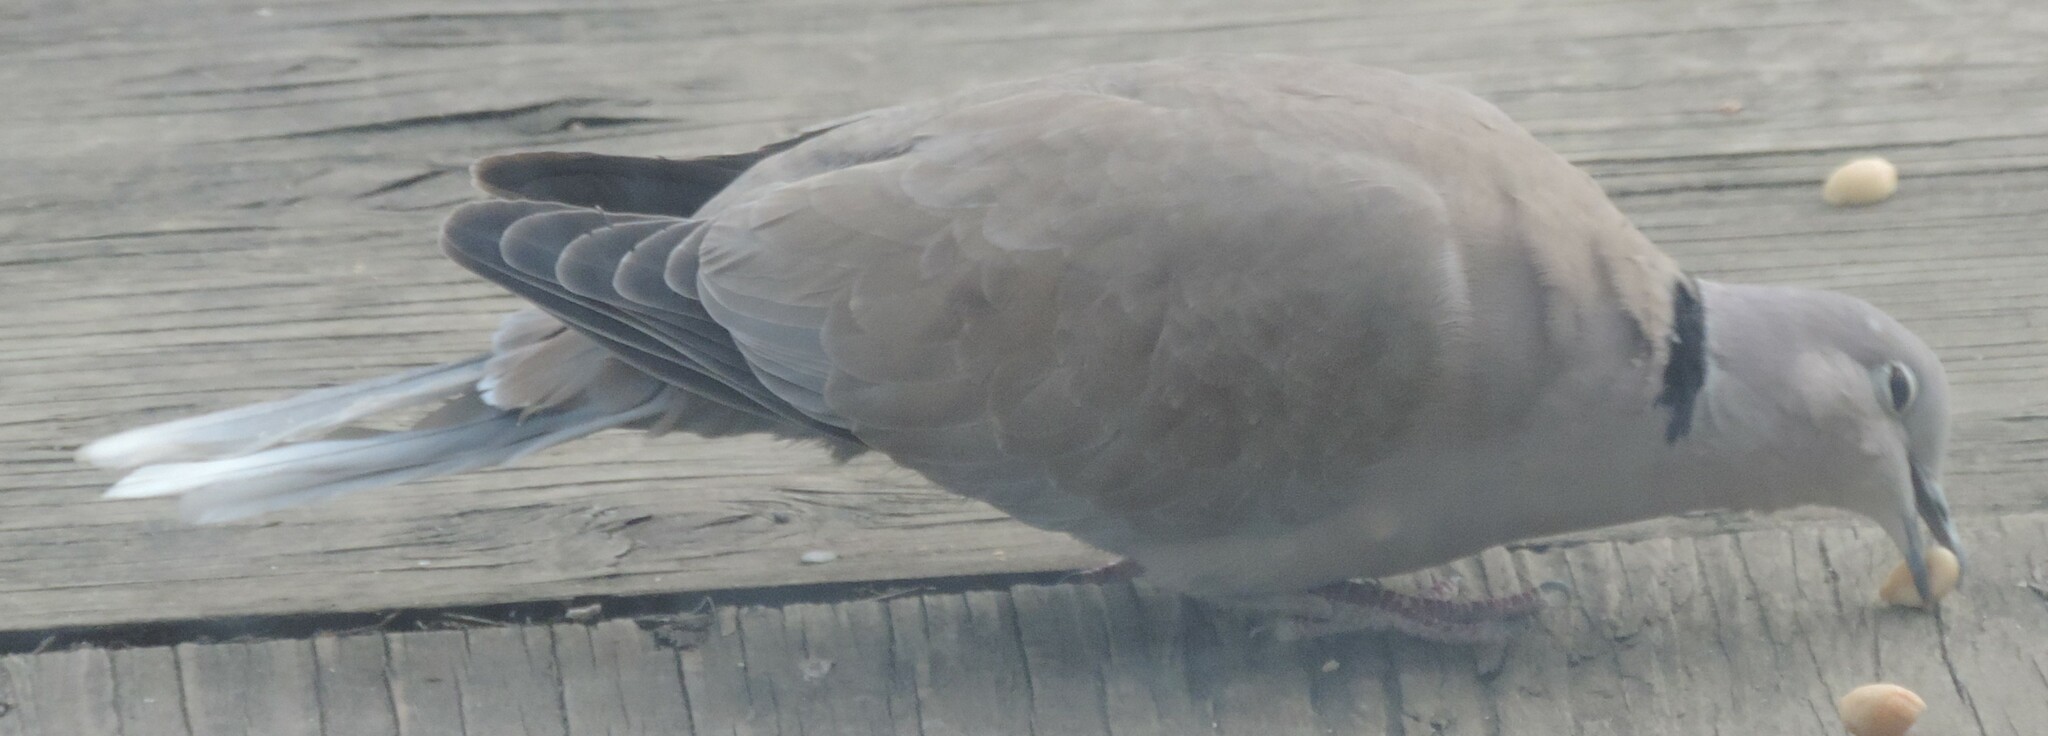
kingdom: Animalia
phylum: Chordata
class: Aves
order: Columbiformes
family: Columbidae
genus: Streptopelia
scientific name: Streptopelia decaocto
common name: Eurasian collared dove
